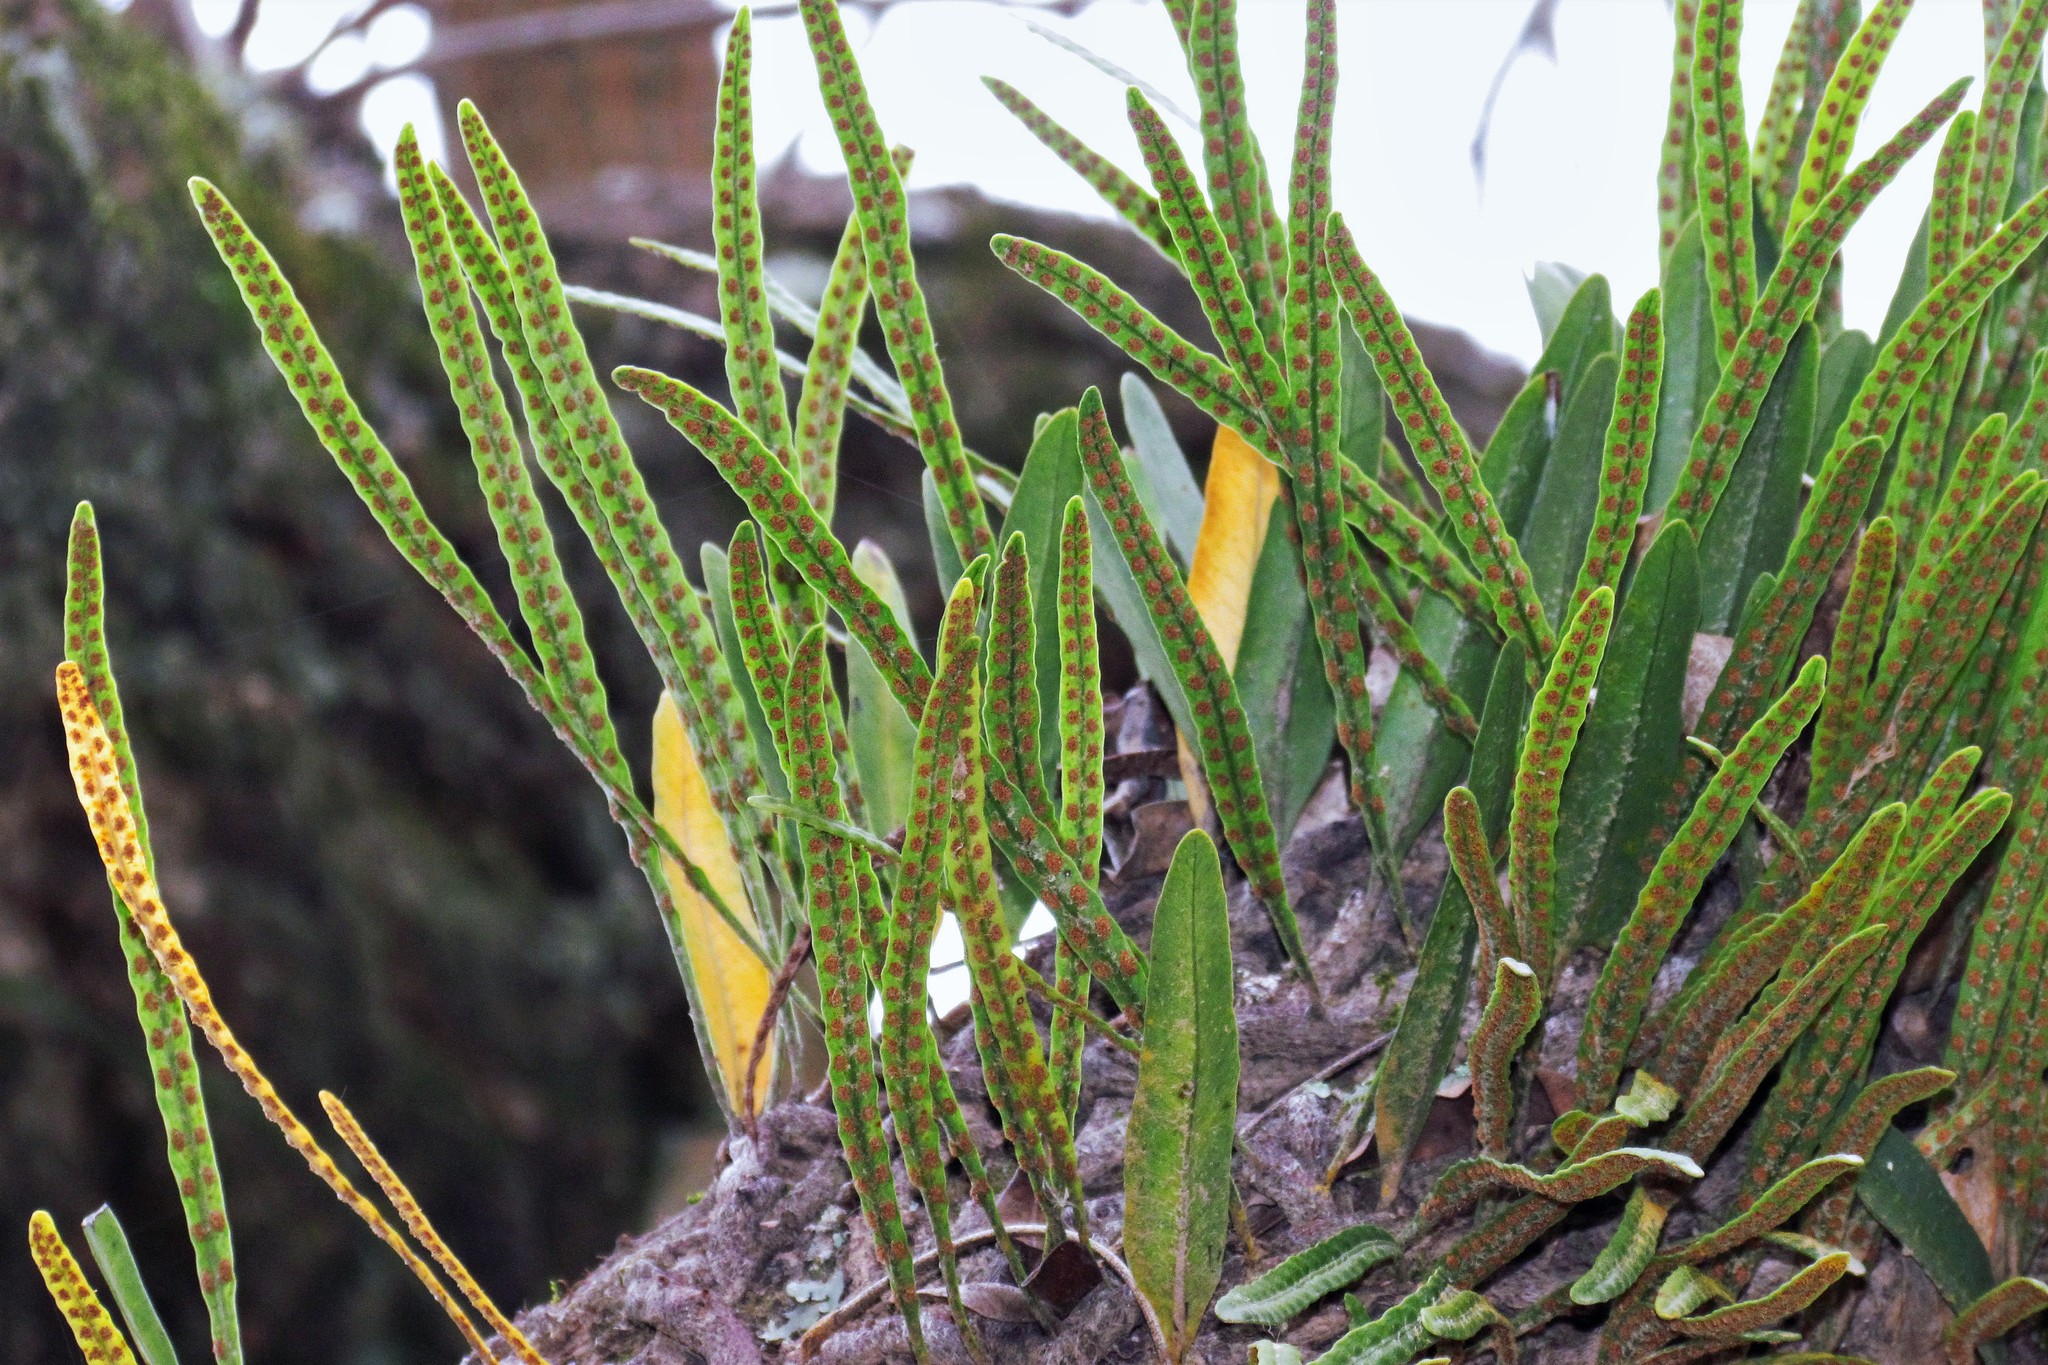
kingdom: Plantae
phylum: Tracheophyta
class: Polypodiopsida
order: Polypodiales
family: Polypodiaceae
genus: Microgramma
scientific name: Microgramma mortoniana
